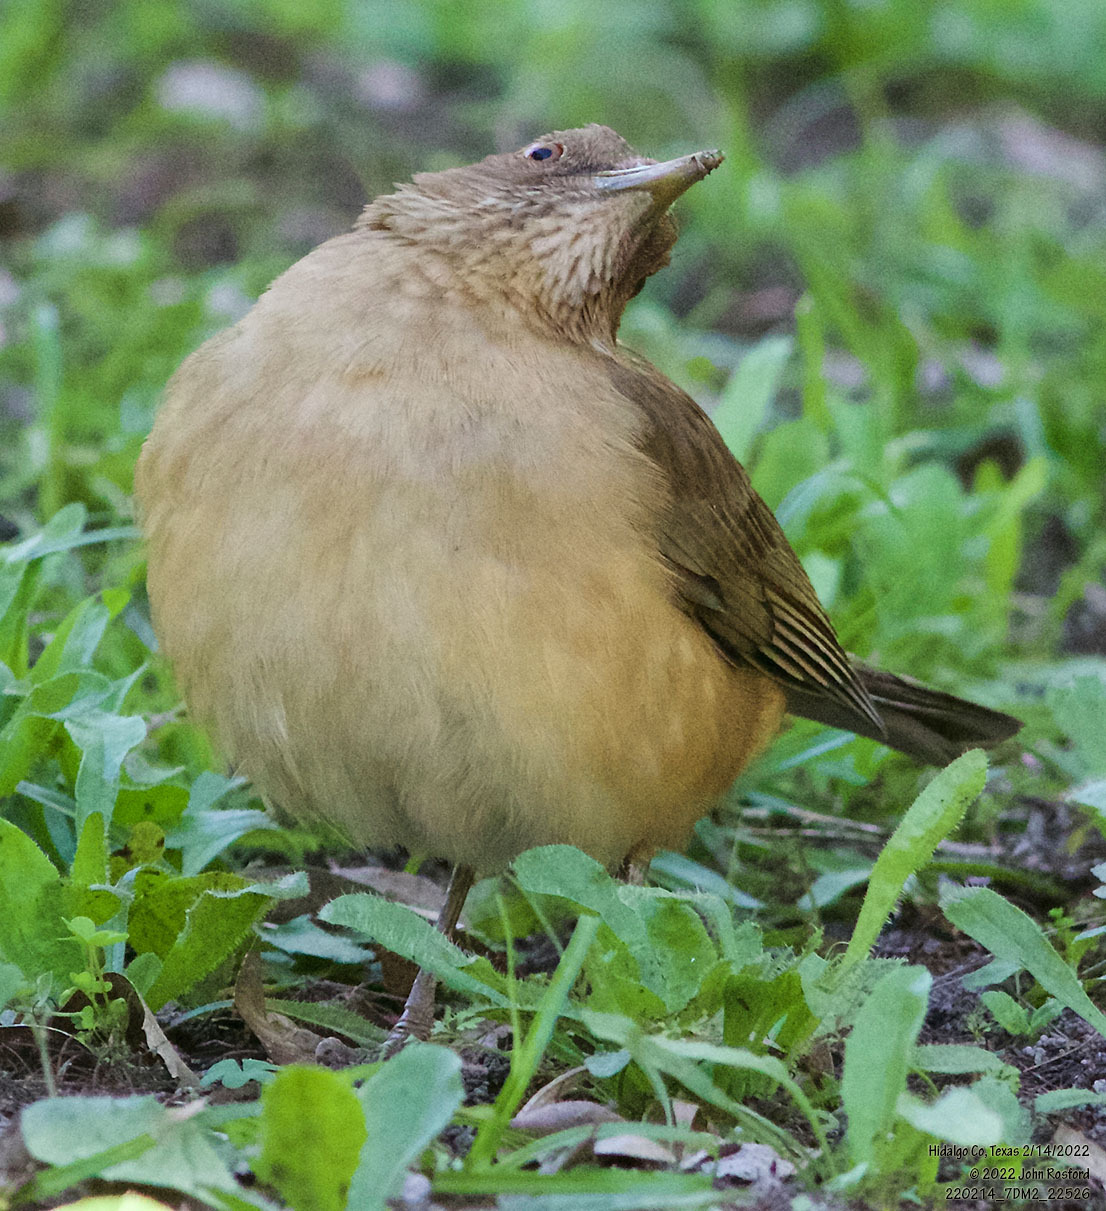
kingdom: Animalia
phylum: Chordata
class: Aves
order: Passeriformes
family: Turdidae
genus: Turdus
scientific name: Turdus grayi
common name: Clay-colored thrush
